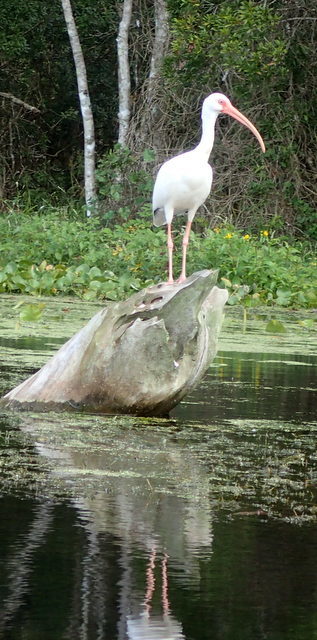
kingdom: Animalia
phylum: Chordata
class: Aves
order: Pelecaniformes
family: Threskiornithidae
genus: Eudocimus
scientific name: Eudocimus albus
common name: White ibis
